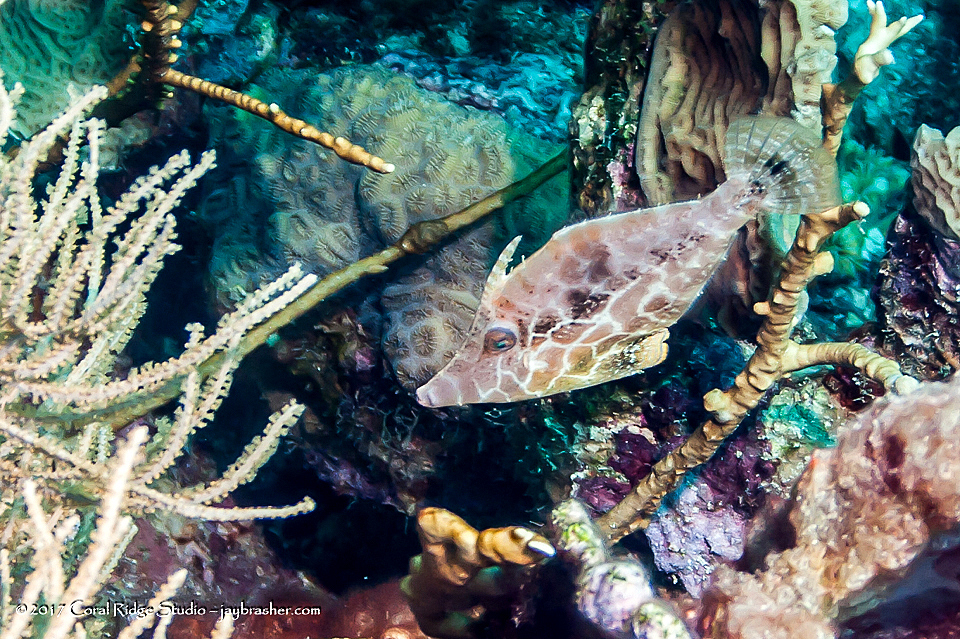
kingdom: Animalia
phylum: Chordata
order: Tetraodontiformes
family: Monacanthidae
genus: Monacanthus
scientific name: Monacanthus tuckeri
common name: Slender filefish
